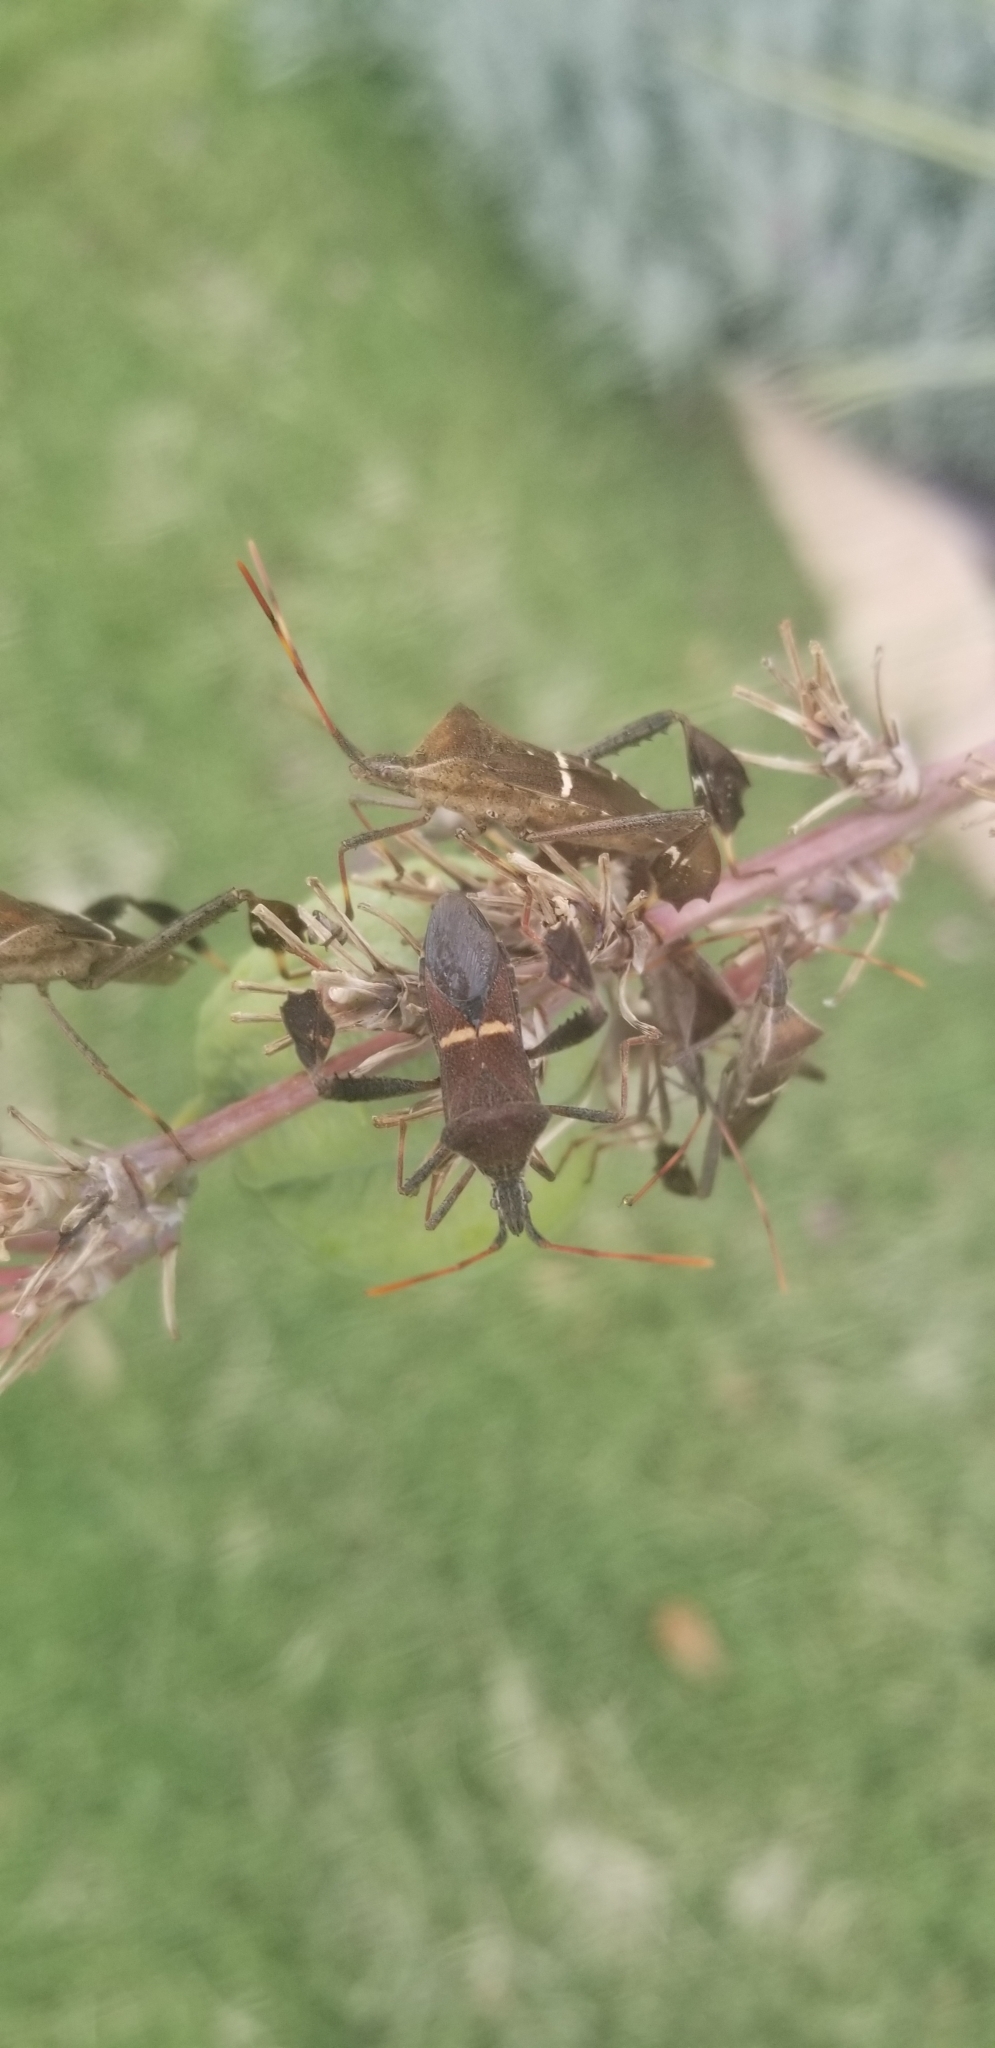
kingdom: Animalia
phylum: Arthropoda
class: Insecta
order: Hemiptera
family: Coreidae
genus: Leptoglossus
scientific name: Leptoglossus phyllopus
